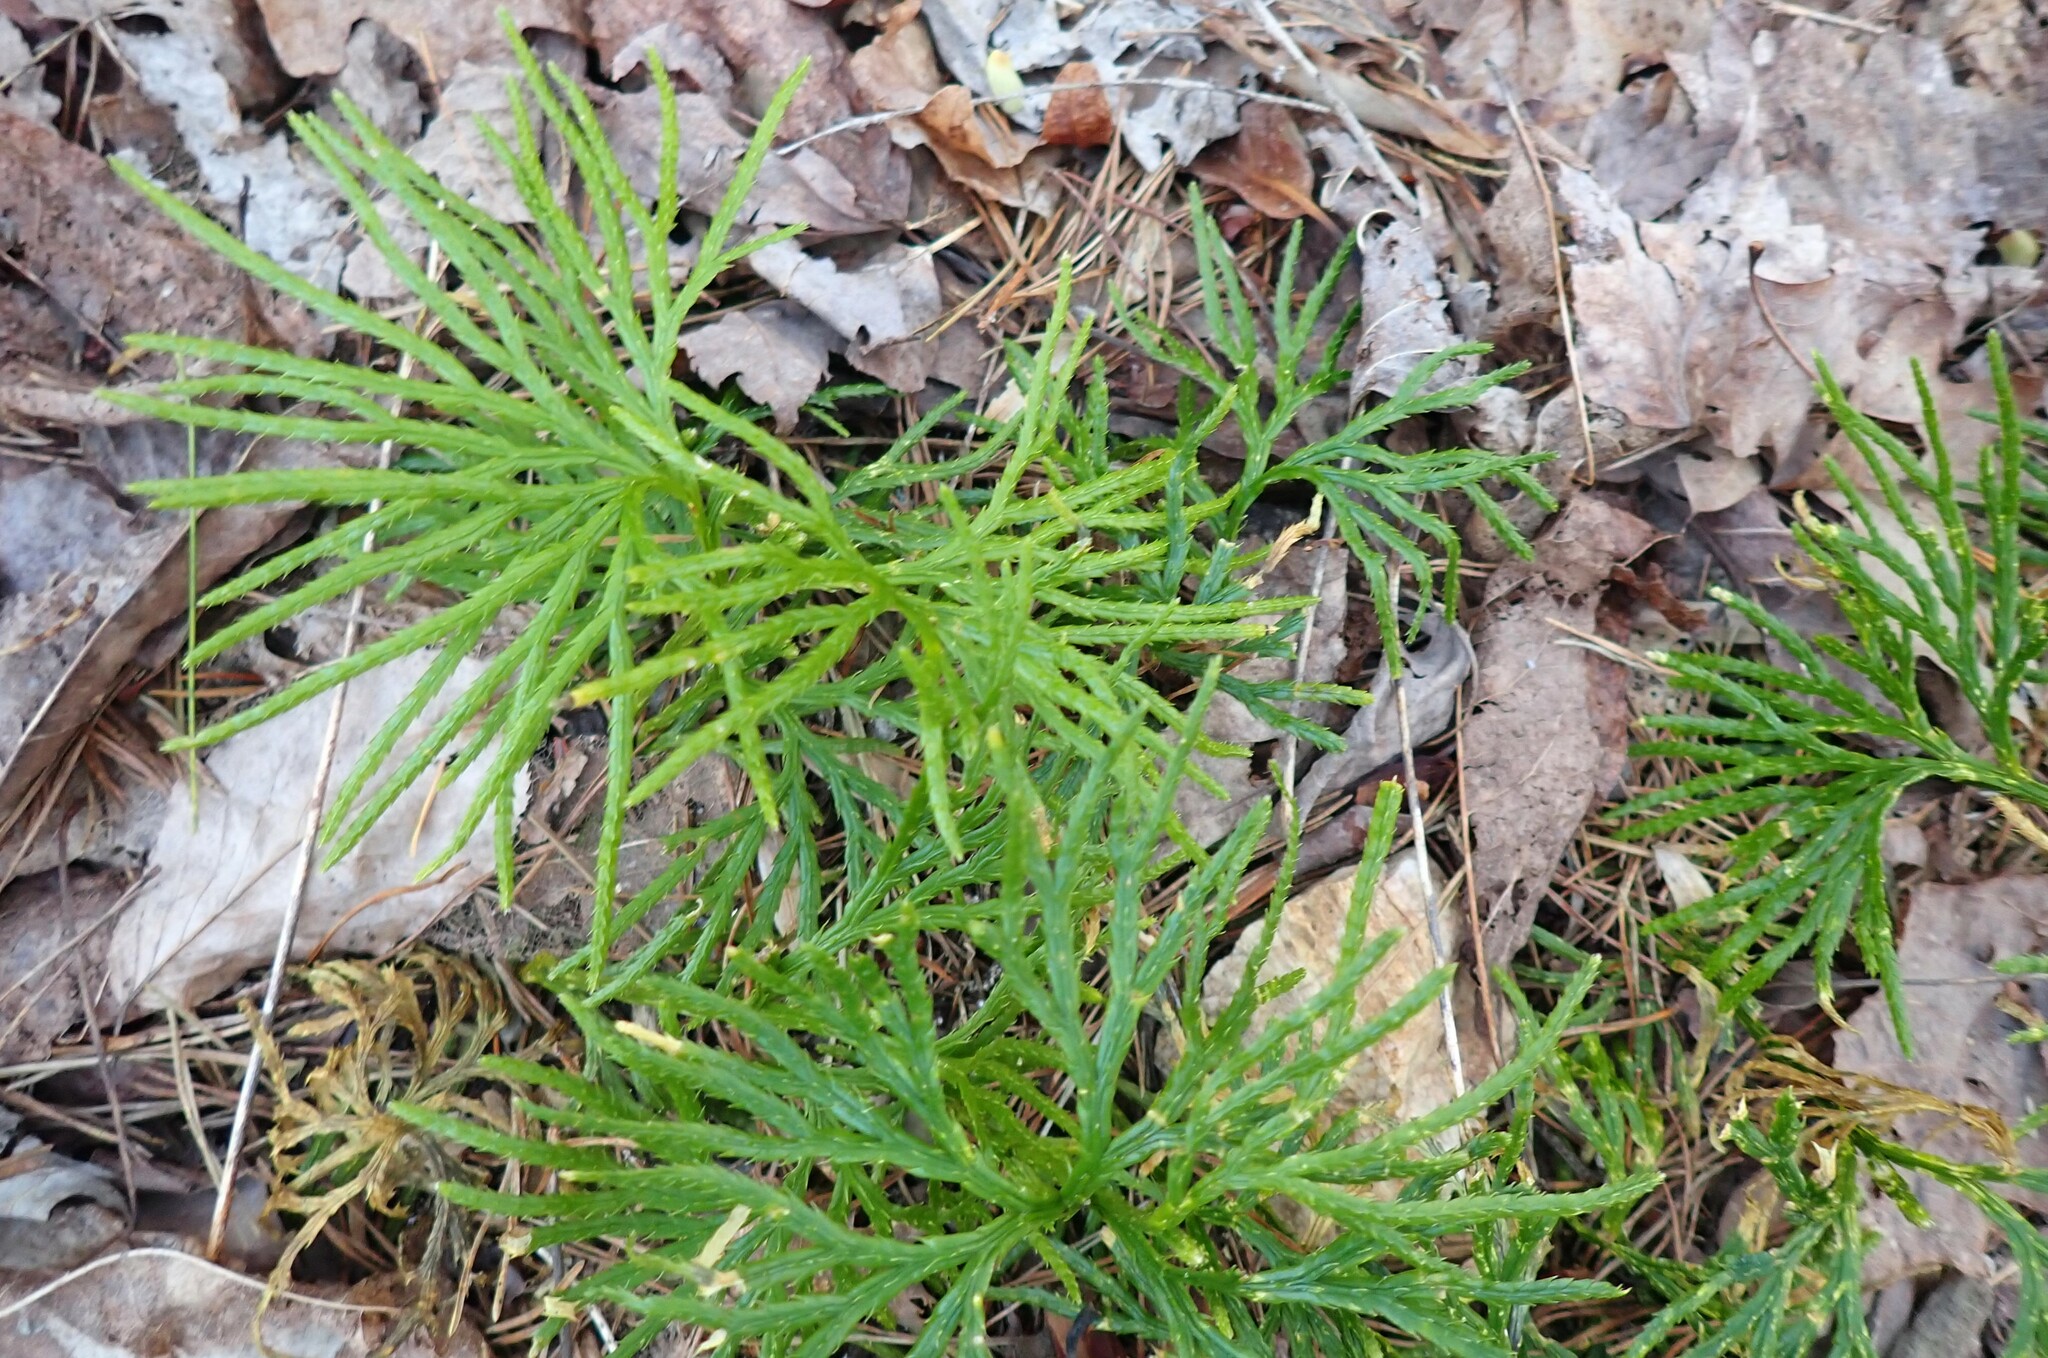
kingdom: Plantae
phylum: Tracheophyta
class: Lycopodiopsida
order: Lycopodiales
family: Lycopodiaceae
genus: Diphasiastrum
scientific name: Diphasiastrum digitatum
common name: Southern running-pine
